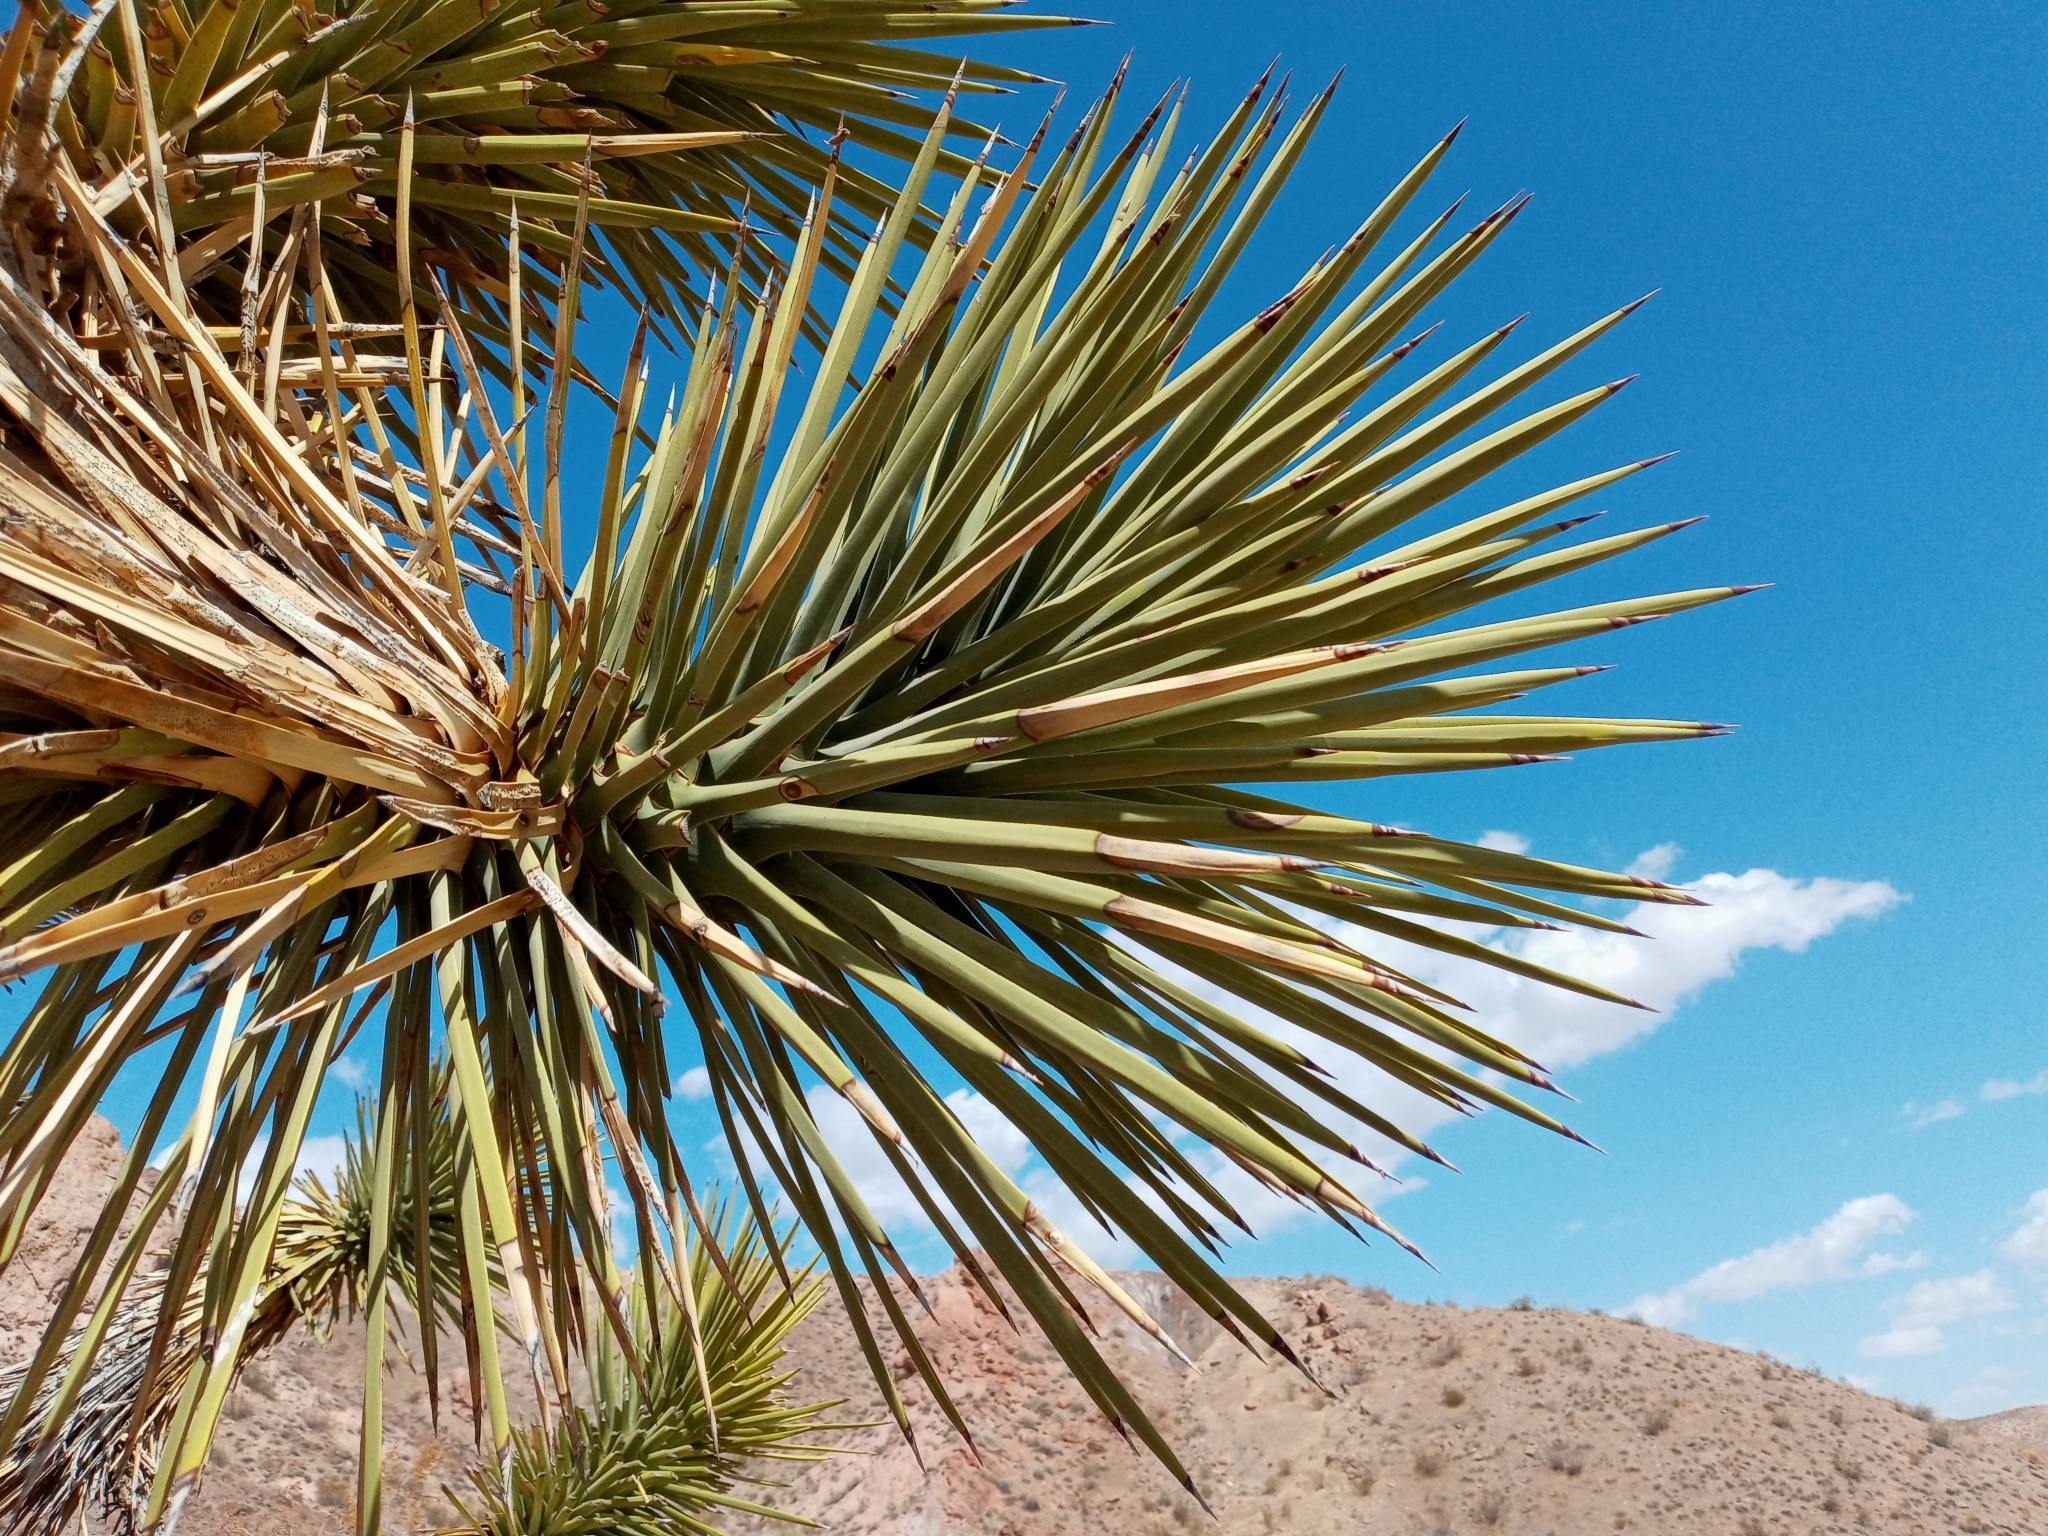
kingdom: Plantae
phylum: Tracheophyta
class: Liliopsida
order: Asparagales
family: Asparagaceae
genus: Yucca
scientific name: Yucca brevifolia
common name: Joshua tree
